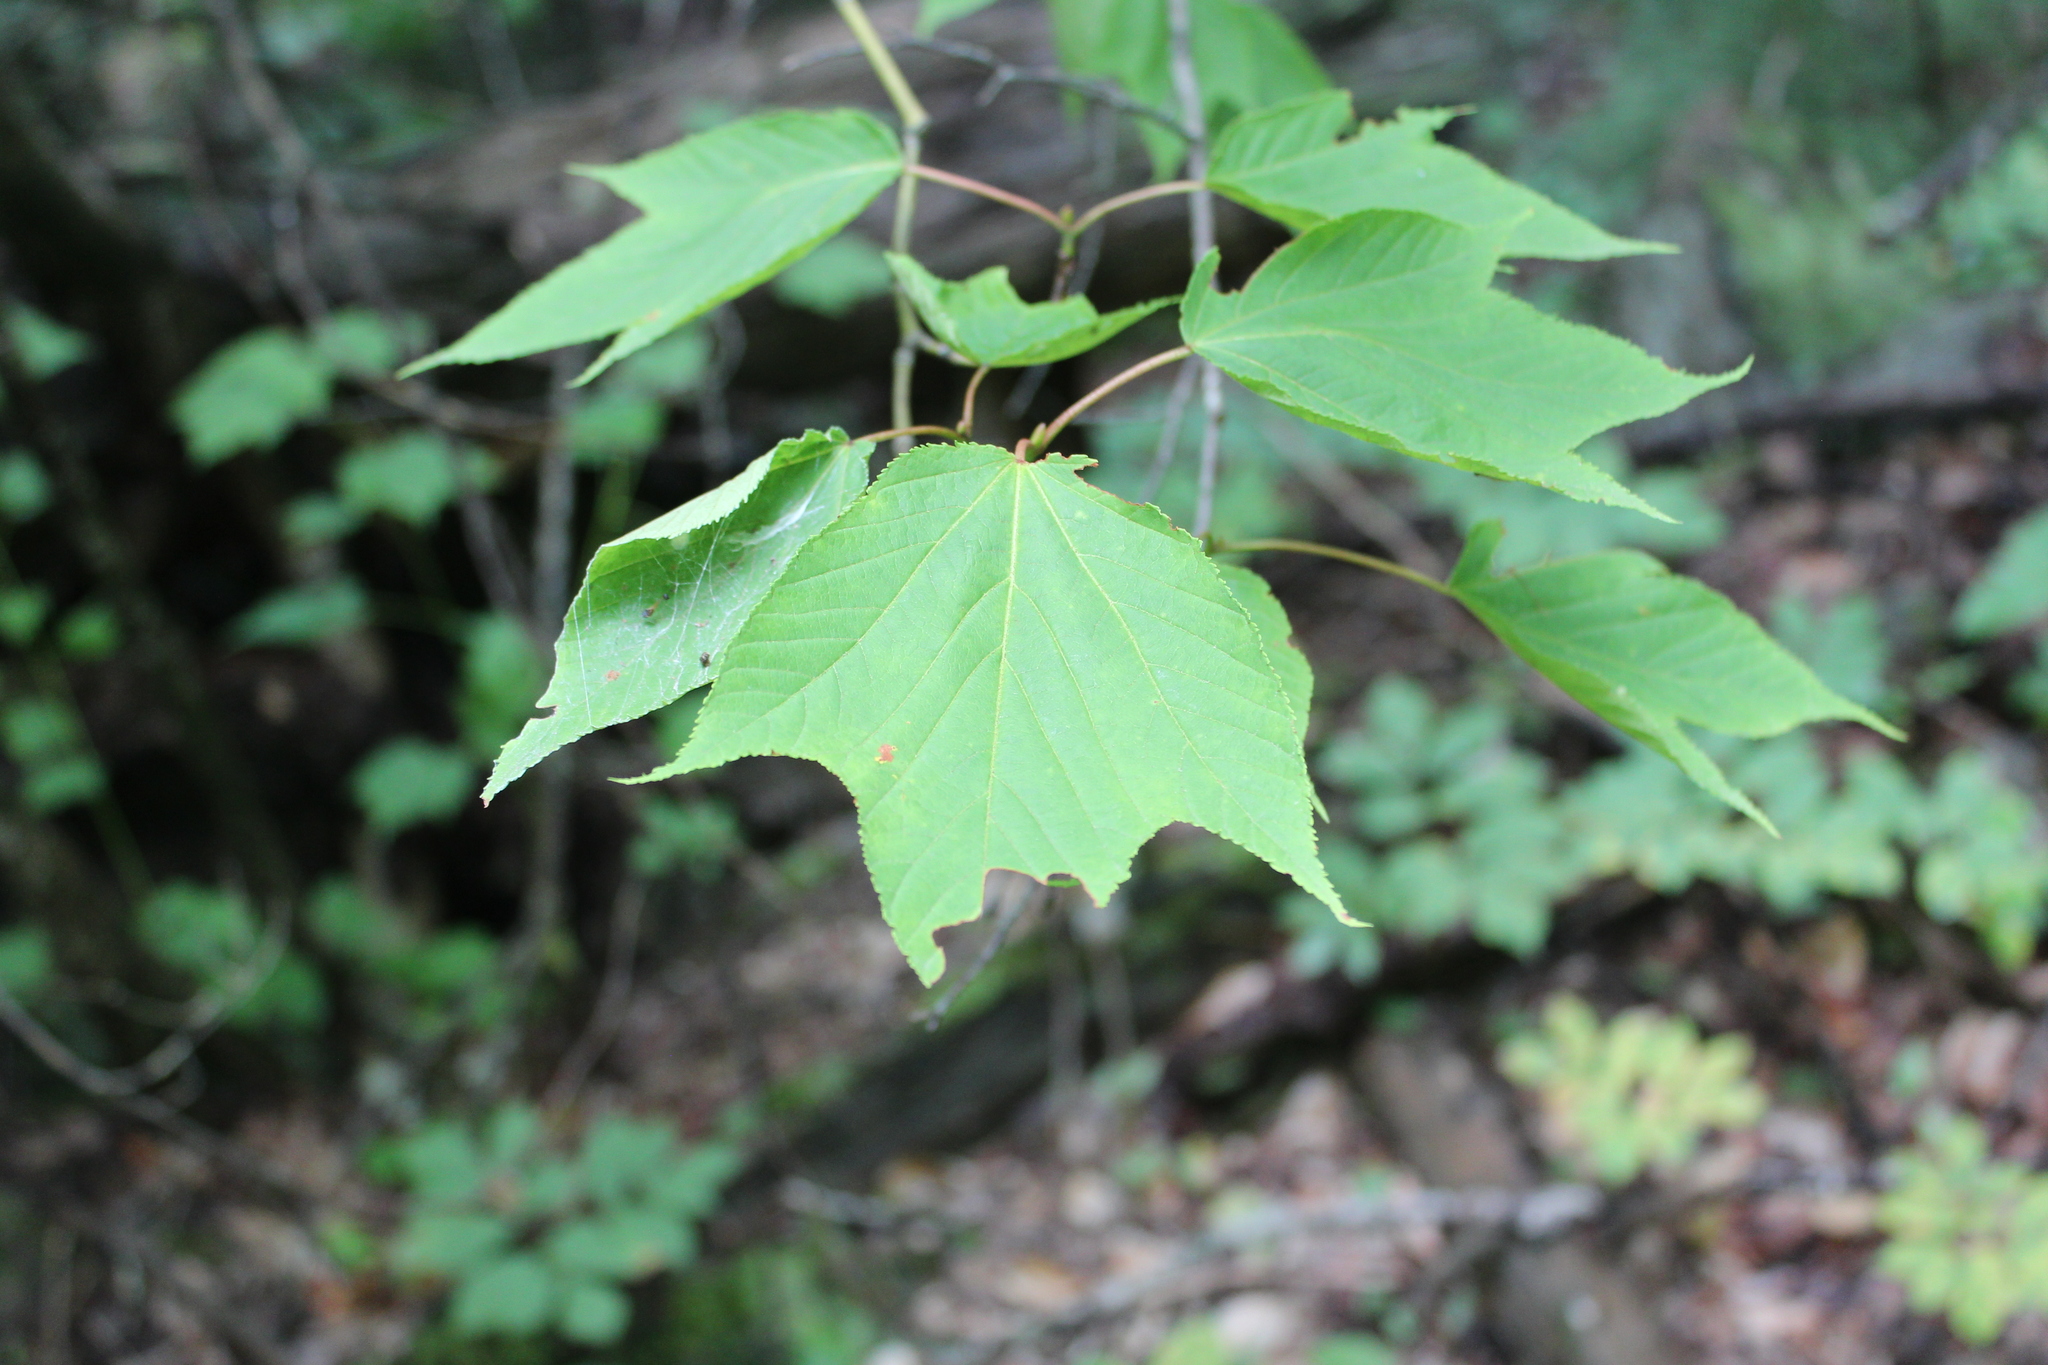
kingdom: Plantae
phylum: Tracheophyta
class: Magnoliopsida
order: Sapindales
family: Sapindaceae
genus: Acer
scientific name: Acer pensylvanicum
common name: Moosewood
